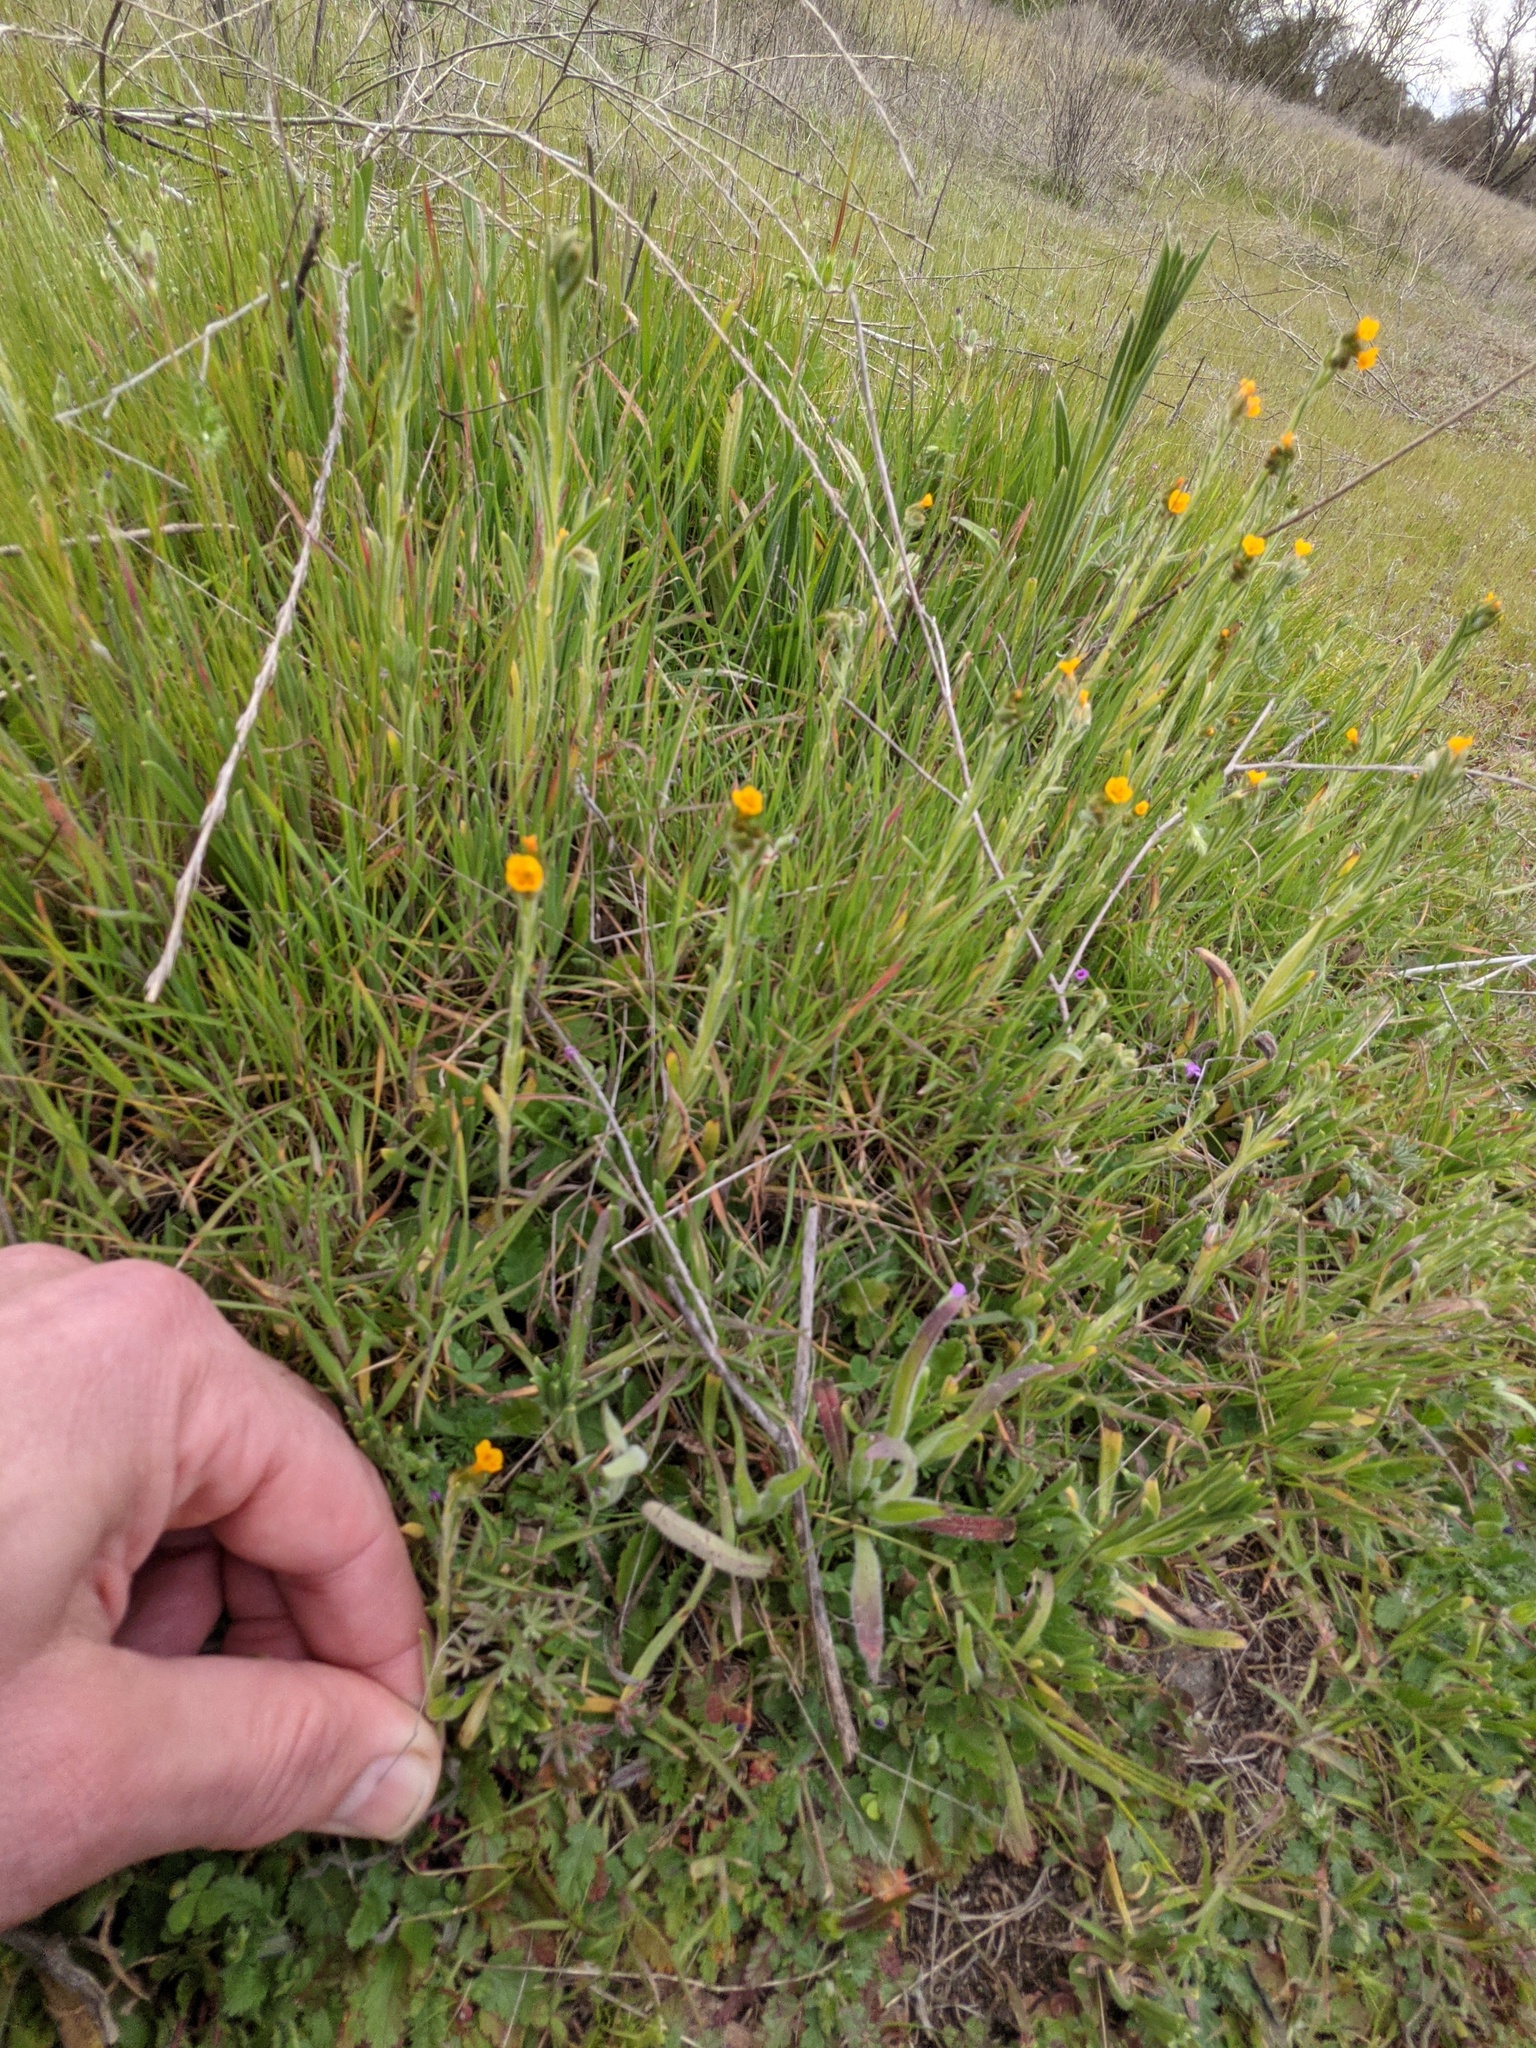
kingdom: Plantae
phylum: Tracheophyta
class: Magnoliopsida
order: Boraginales
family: Boraginaceae
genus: Amsinckia
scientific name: Amsinckia menziesii
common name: Menzies' fiddleneck
